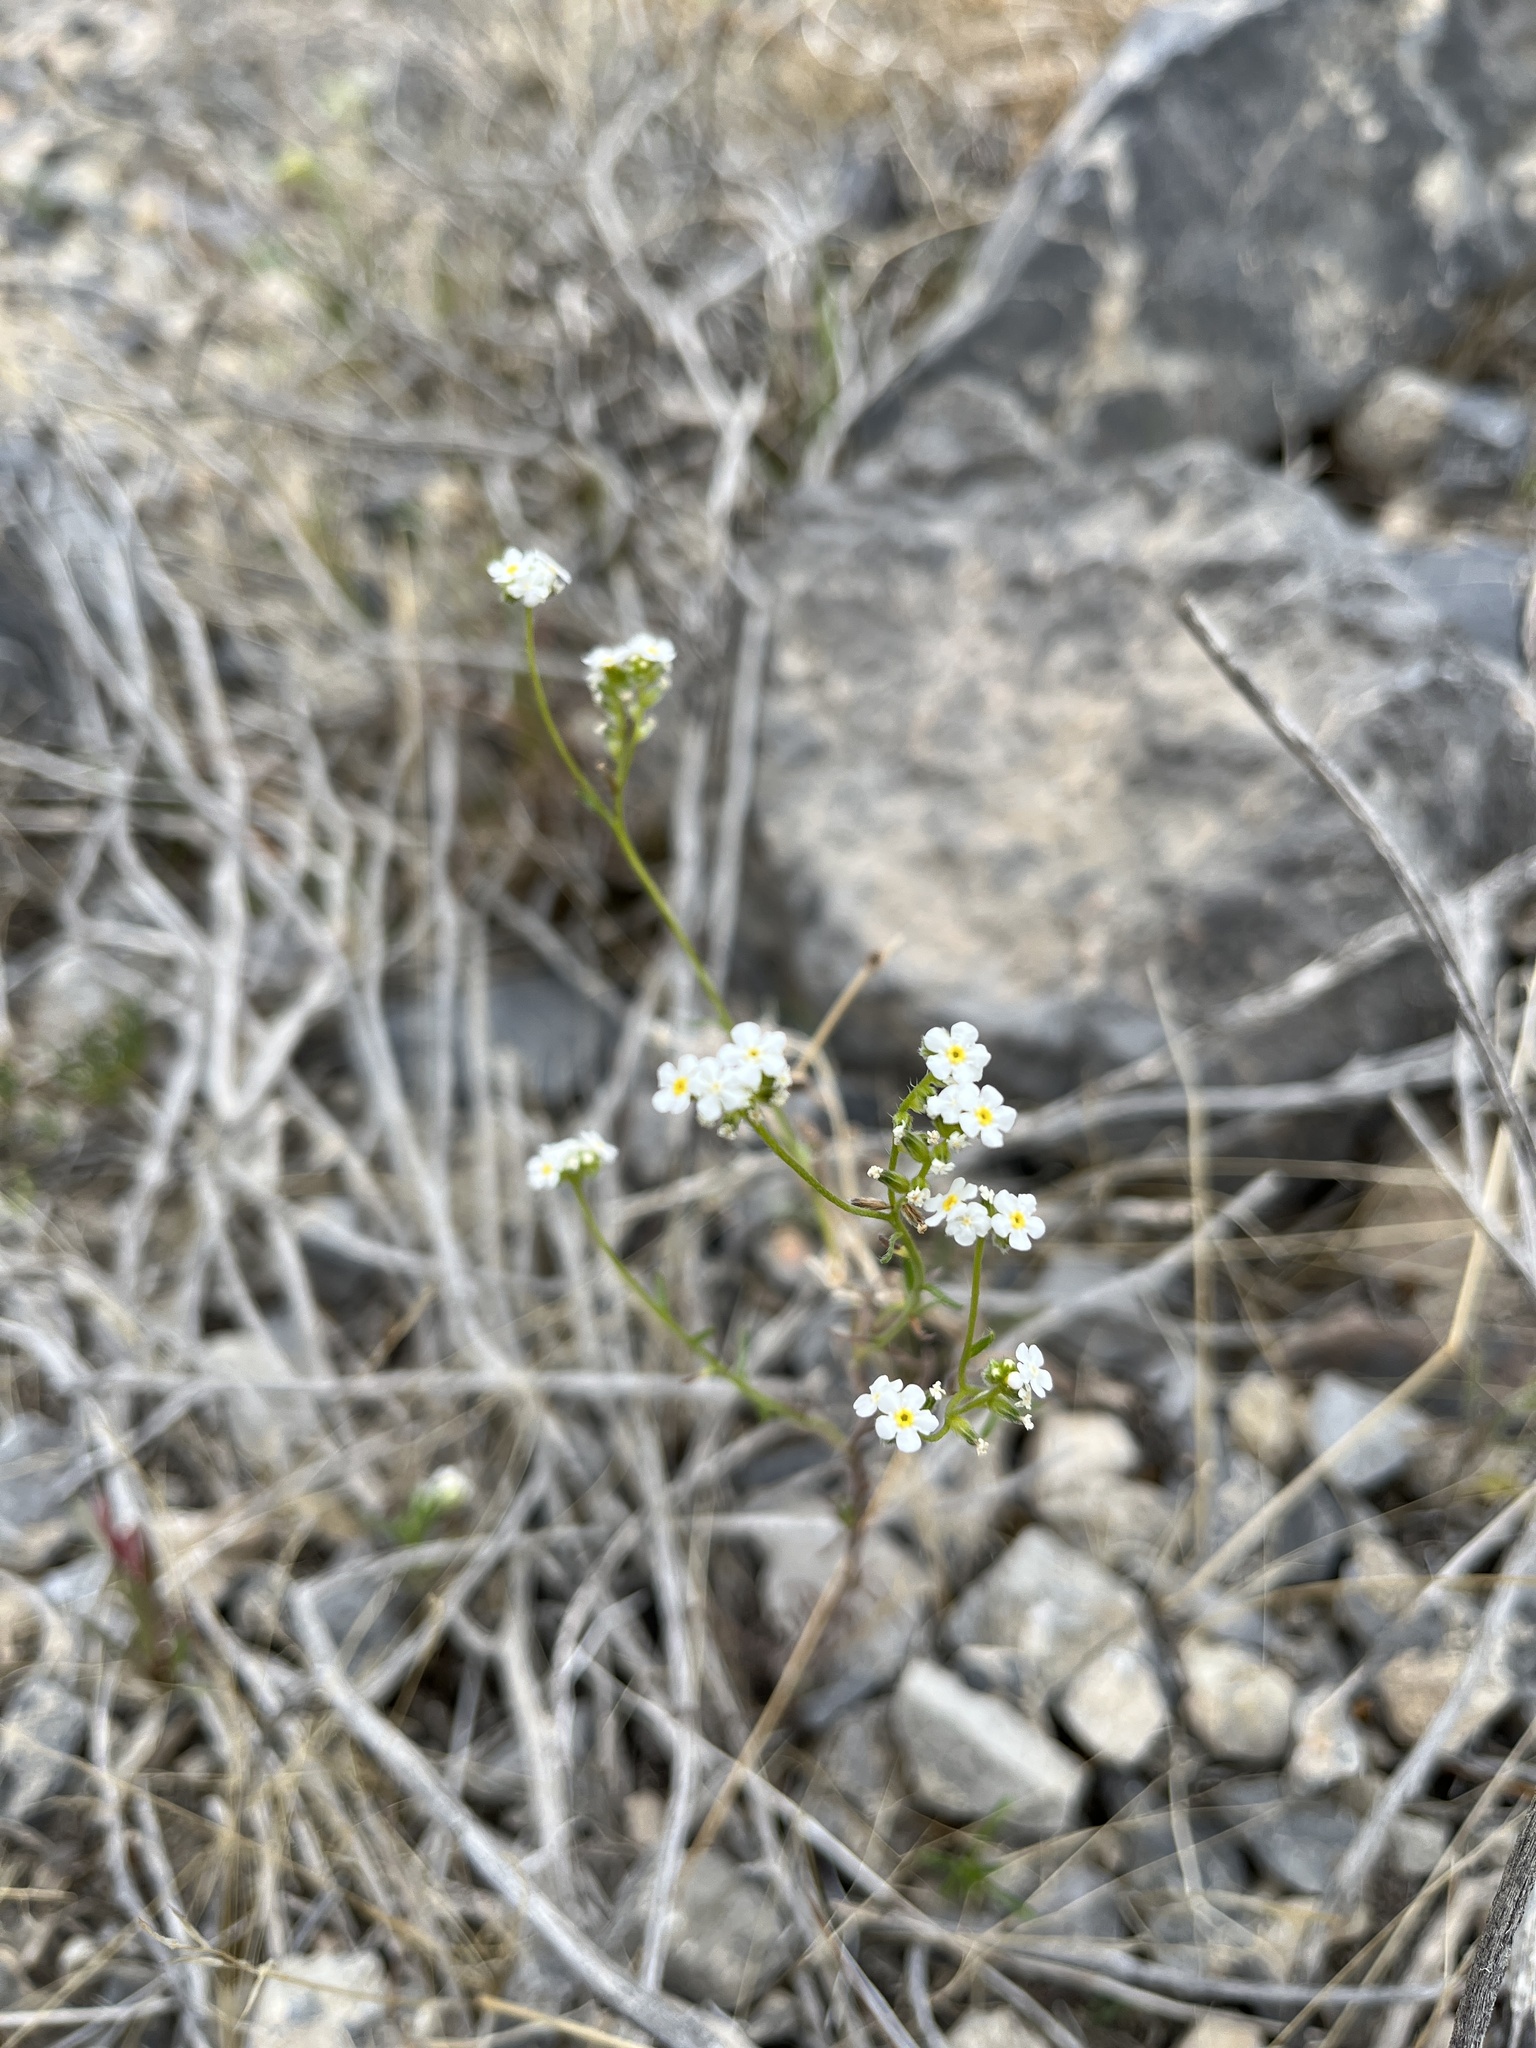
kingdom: Plantae
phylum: Tracheophyta
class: Magnoliopsida
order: Boraginales
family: Boraginaceae
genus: Cryptantha
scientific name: Cryptantha utahensis
